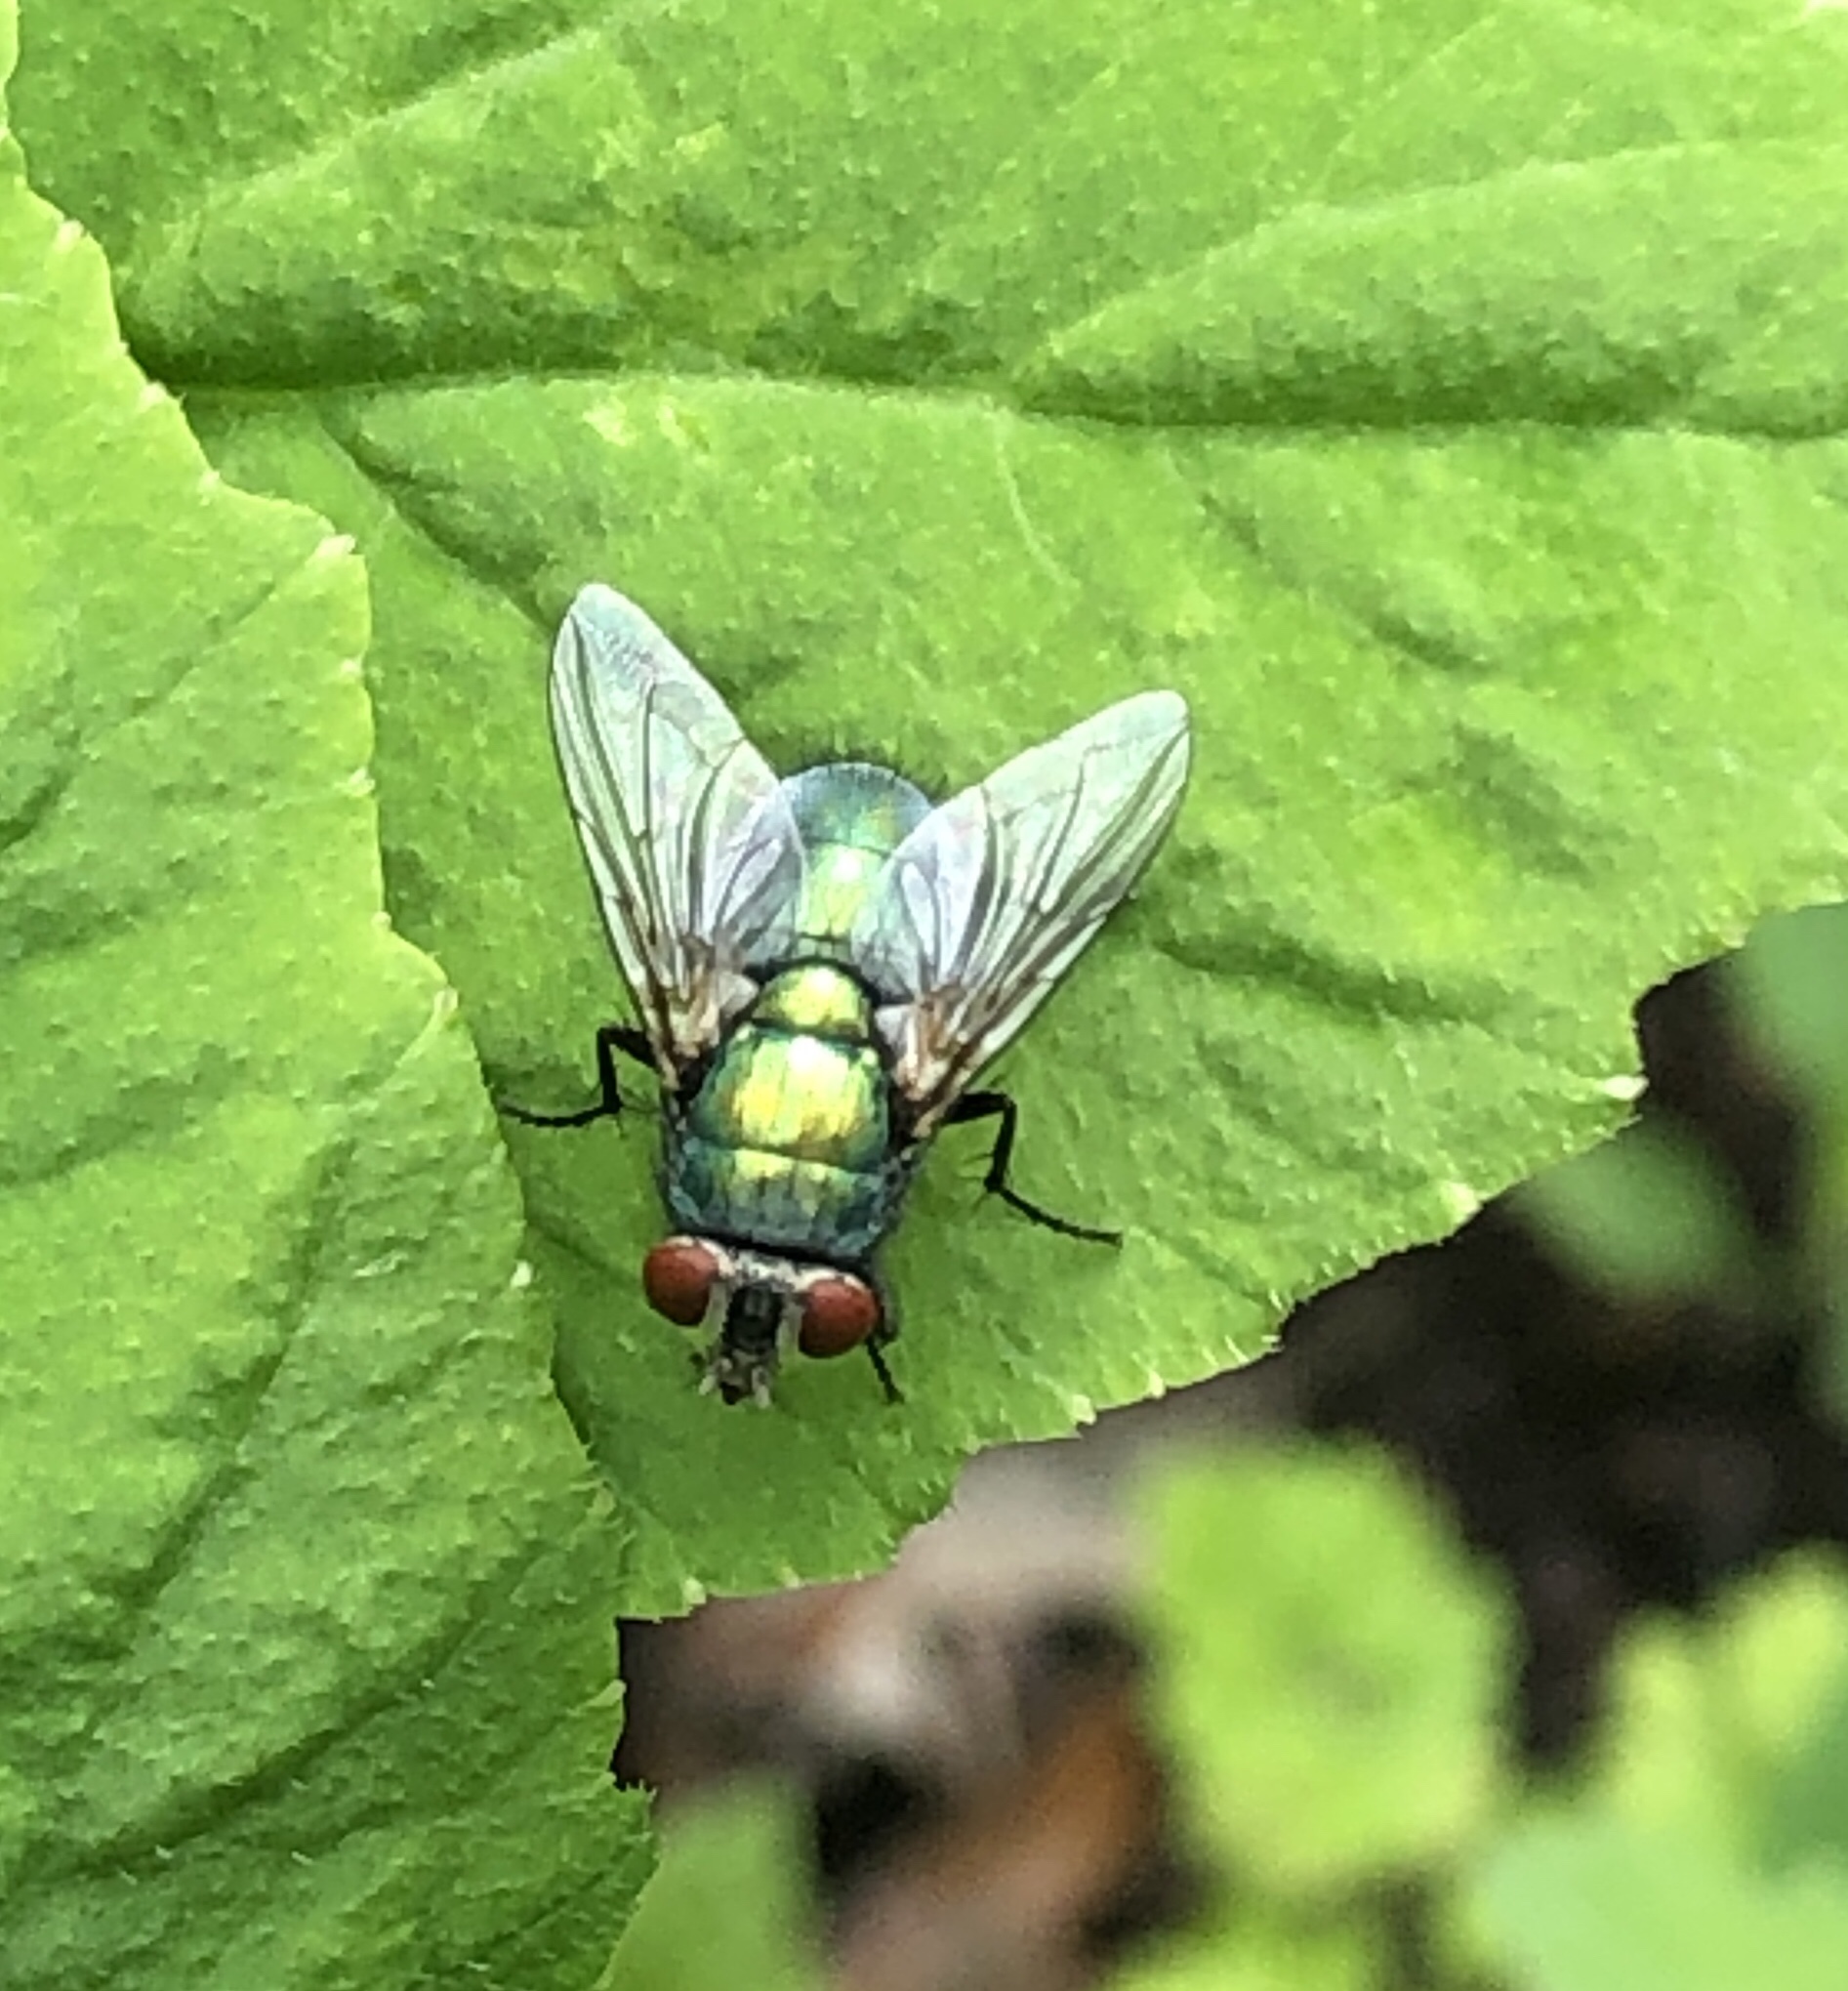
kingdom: Animalia
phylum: Arthropoda
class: Insecta
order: Diptera
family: Calliphoridae
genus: Lucilia
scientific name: Lucilia sericata
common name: Blow fly
